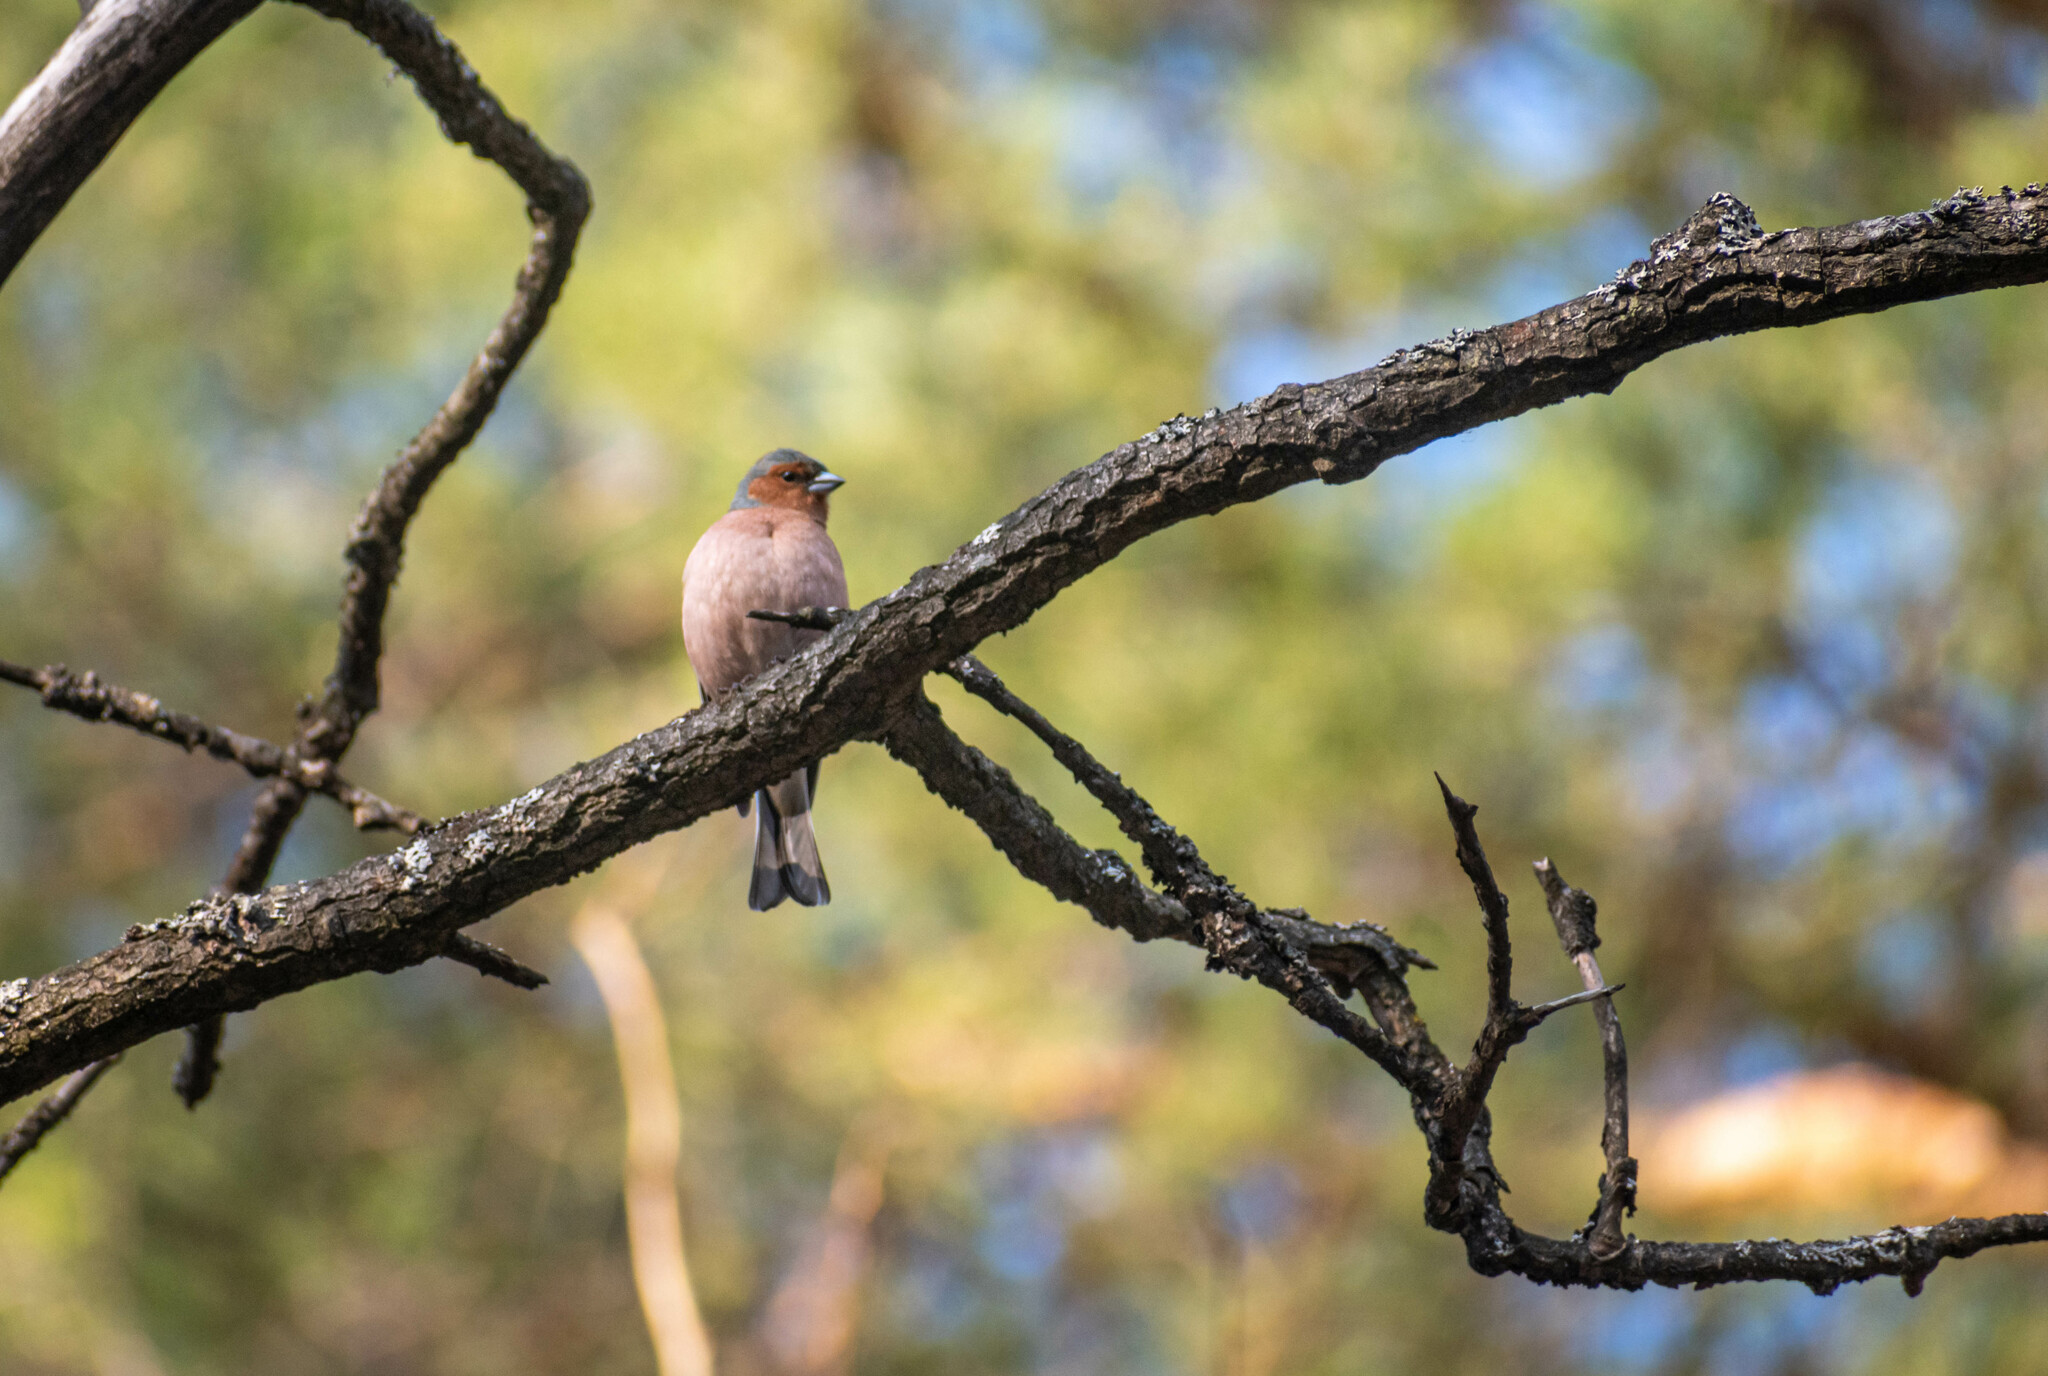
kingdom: Animalia
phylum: Chordata
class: Aves
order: Passeriformes
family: Fringillidae
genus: Fringilla
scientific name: Fringilla coelebs
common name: Common chaffinch
